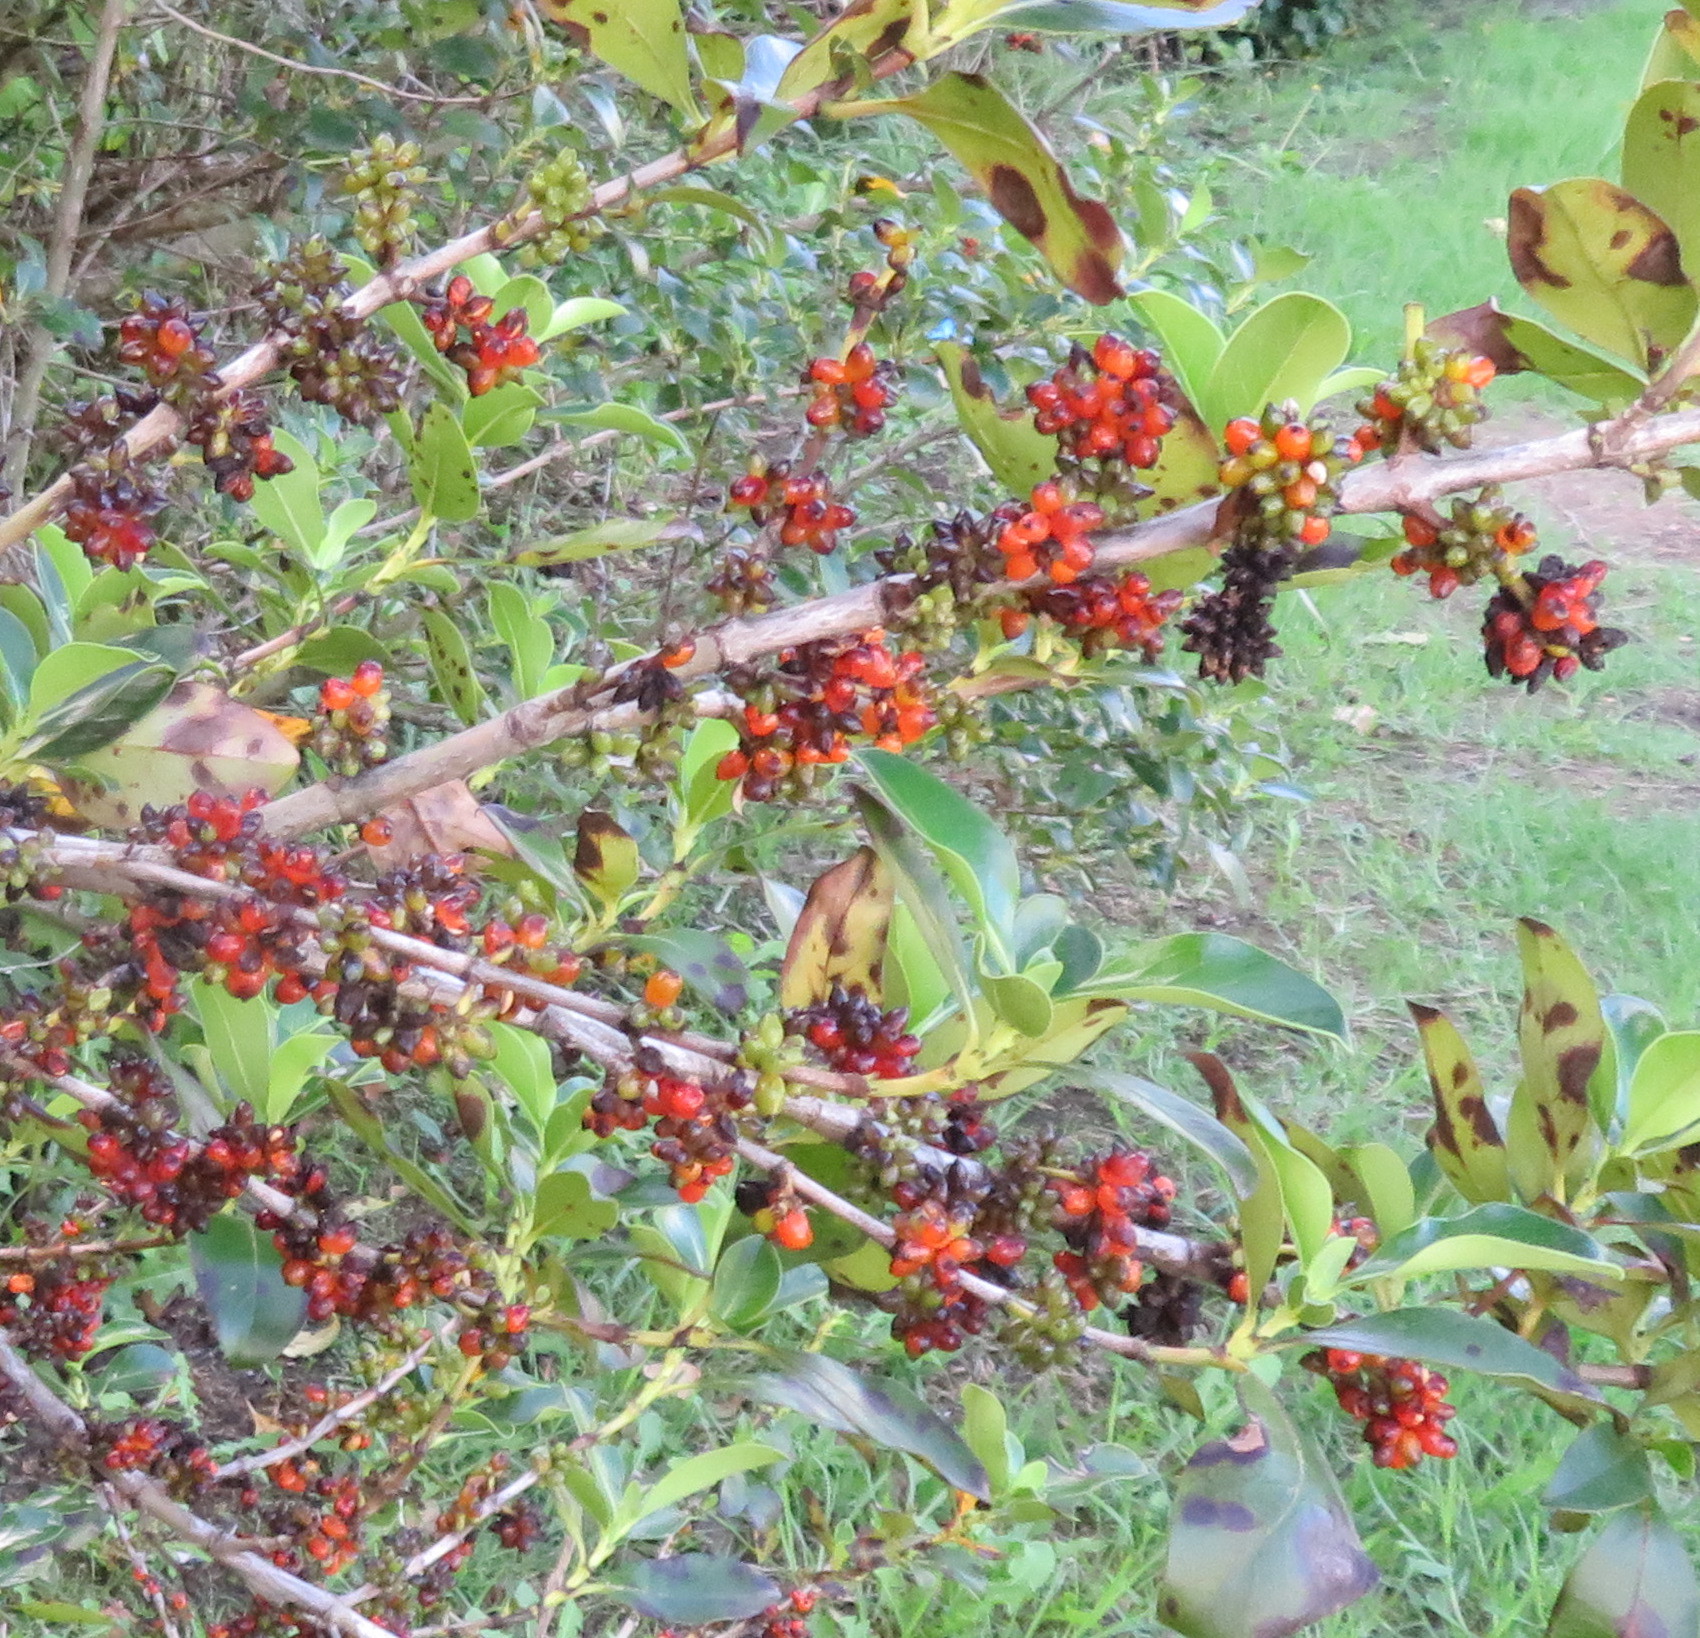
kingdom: Plantae
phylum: Tracheophyta
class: Magnoliopsida
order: Gentianales
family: Rubiaceae
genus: Coprosma
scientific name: Coprosma robusta
